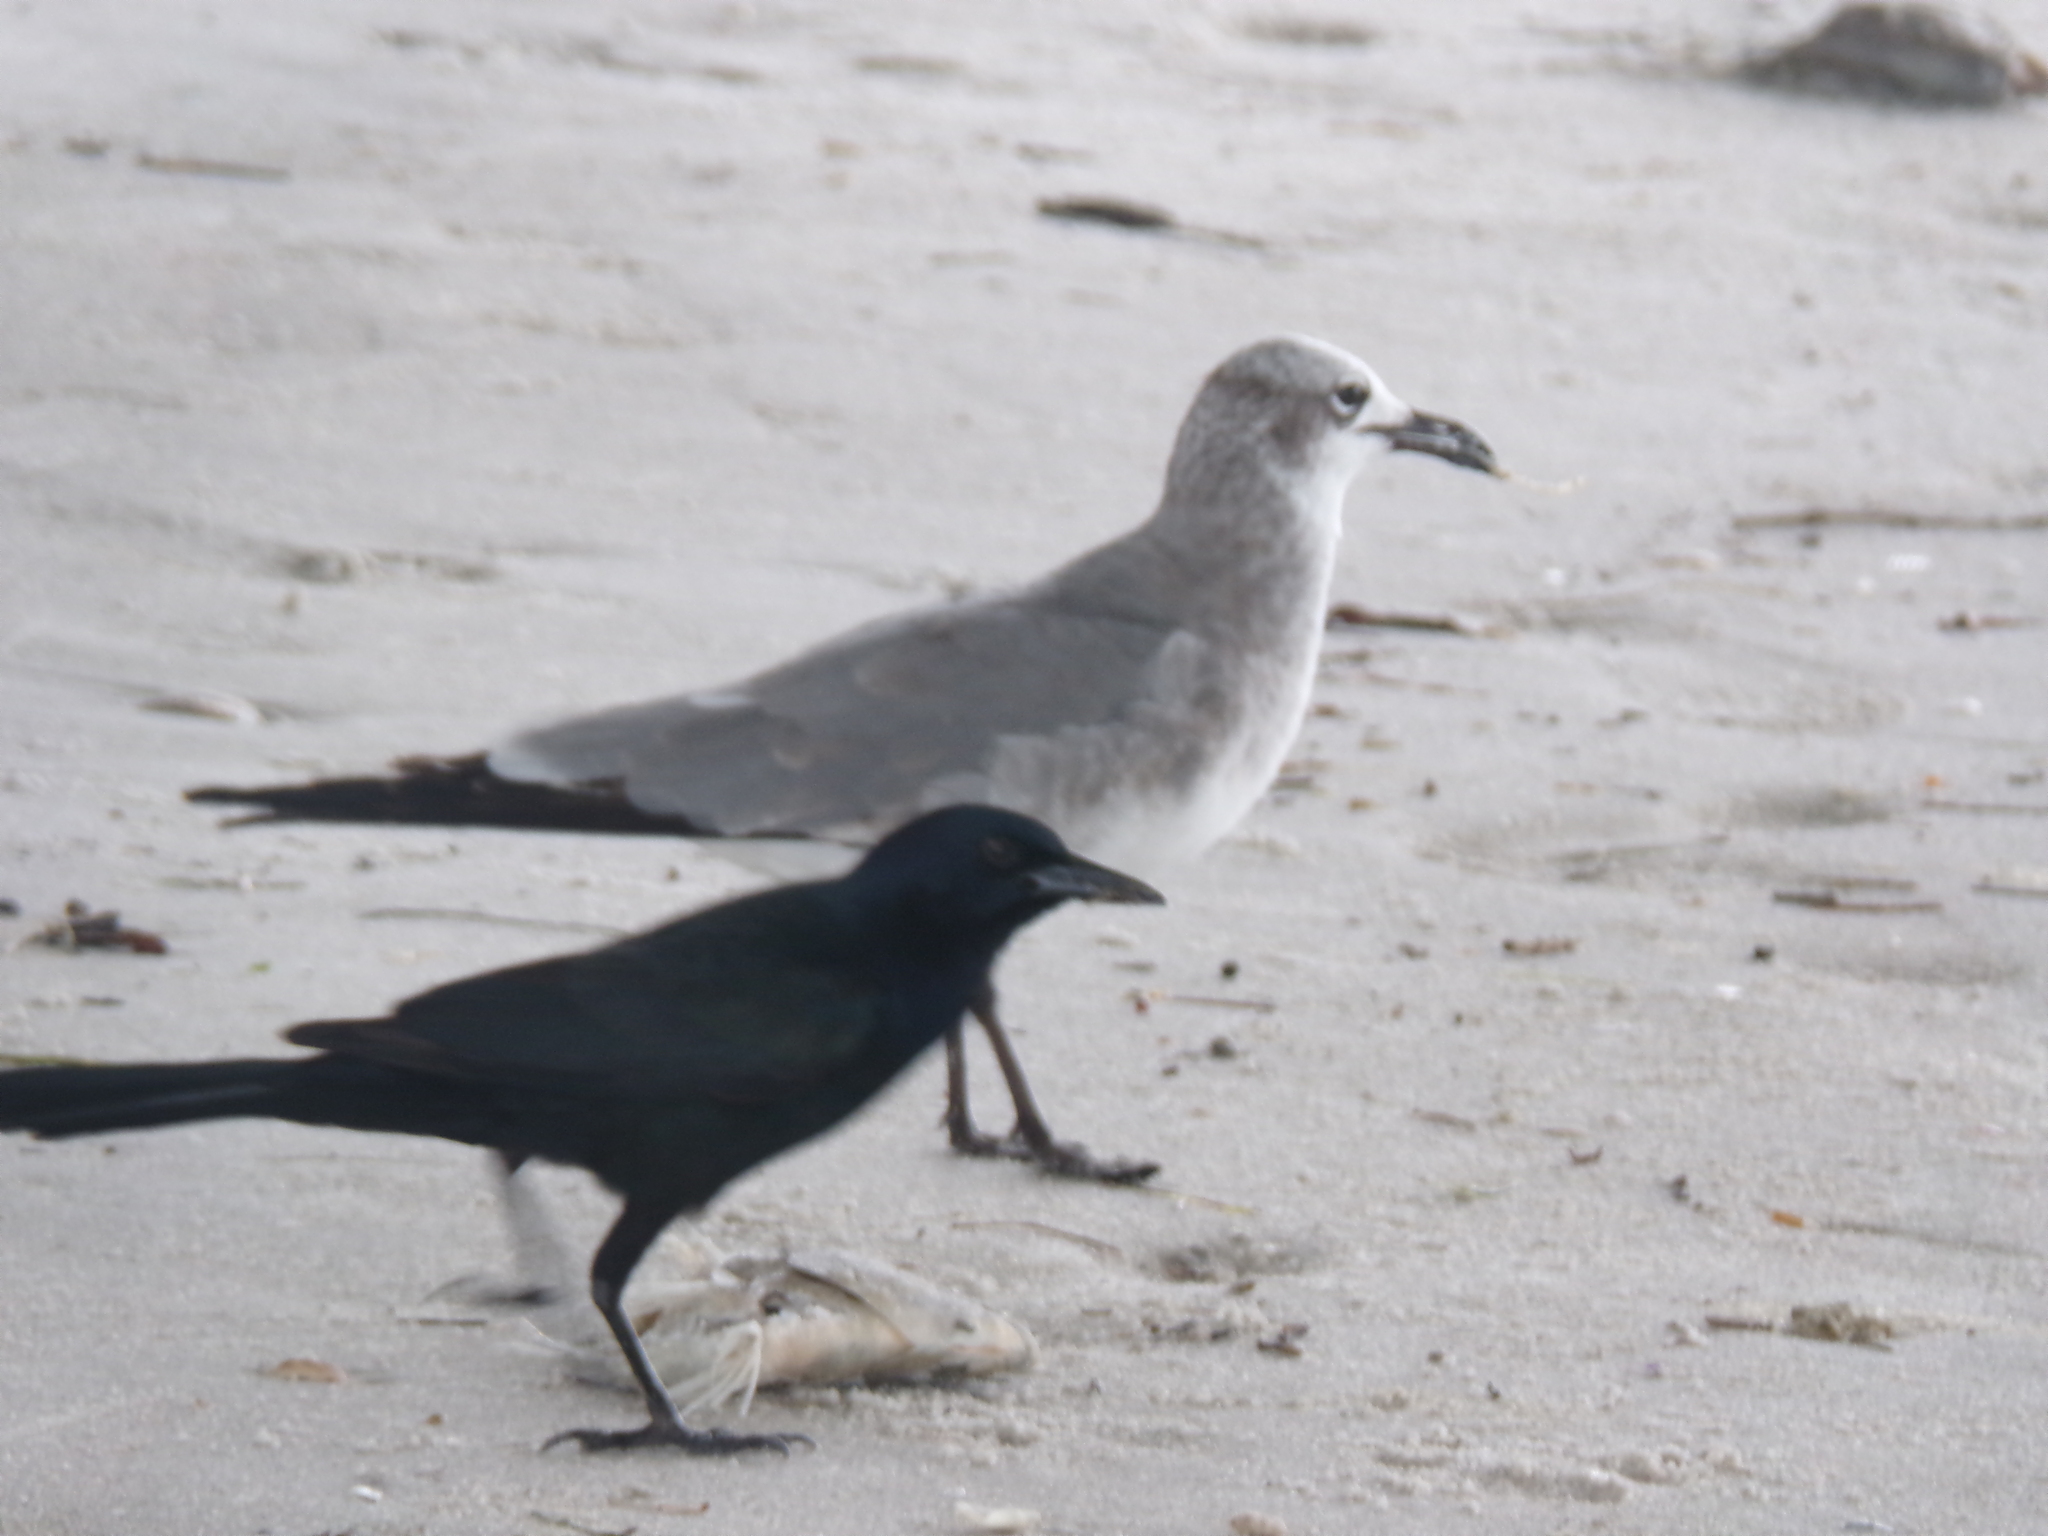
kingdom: Animalia
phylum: Chordata
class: Aves
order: Charadriiformes
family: Laridae
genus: Leucophaeus
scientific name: Leucophaeus atricilla
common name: Laughing gull
